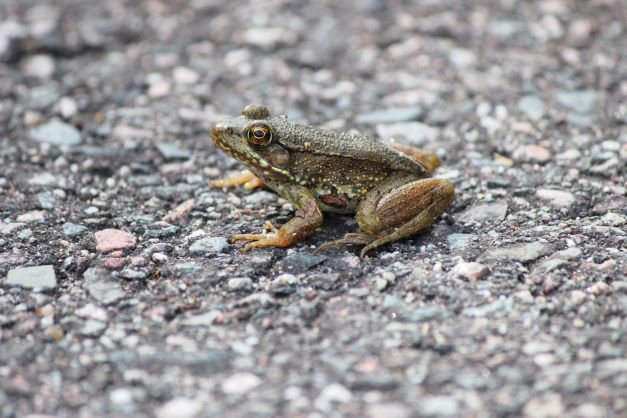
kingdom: Animalia
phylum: Chordata
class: Amphibia
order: Anura
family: Ranidae
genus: Lithobates
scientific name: Lithobates clamitans
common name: Green frog
